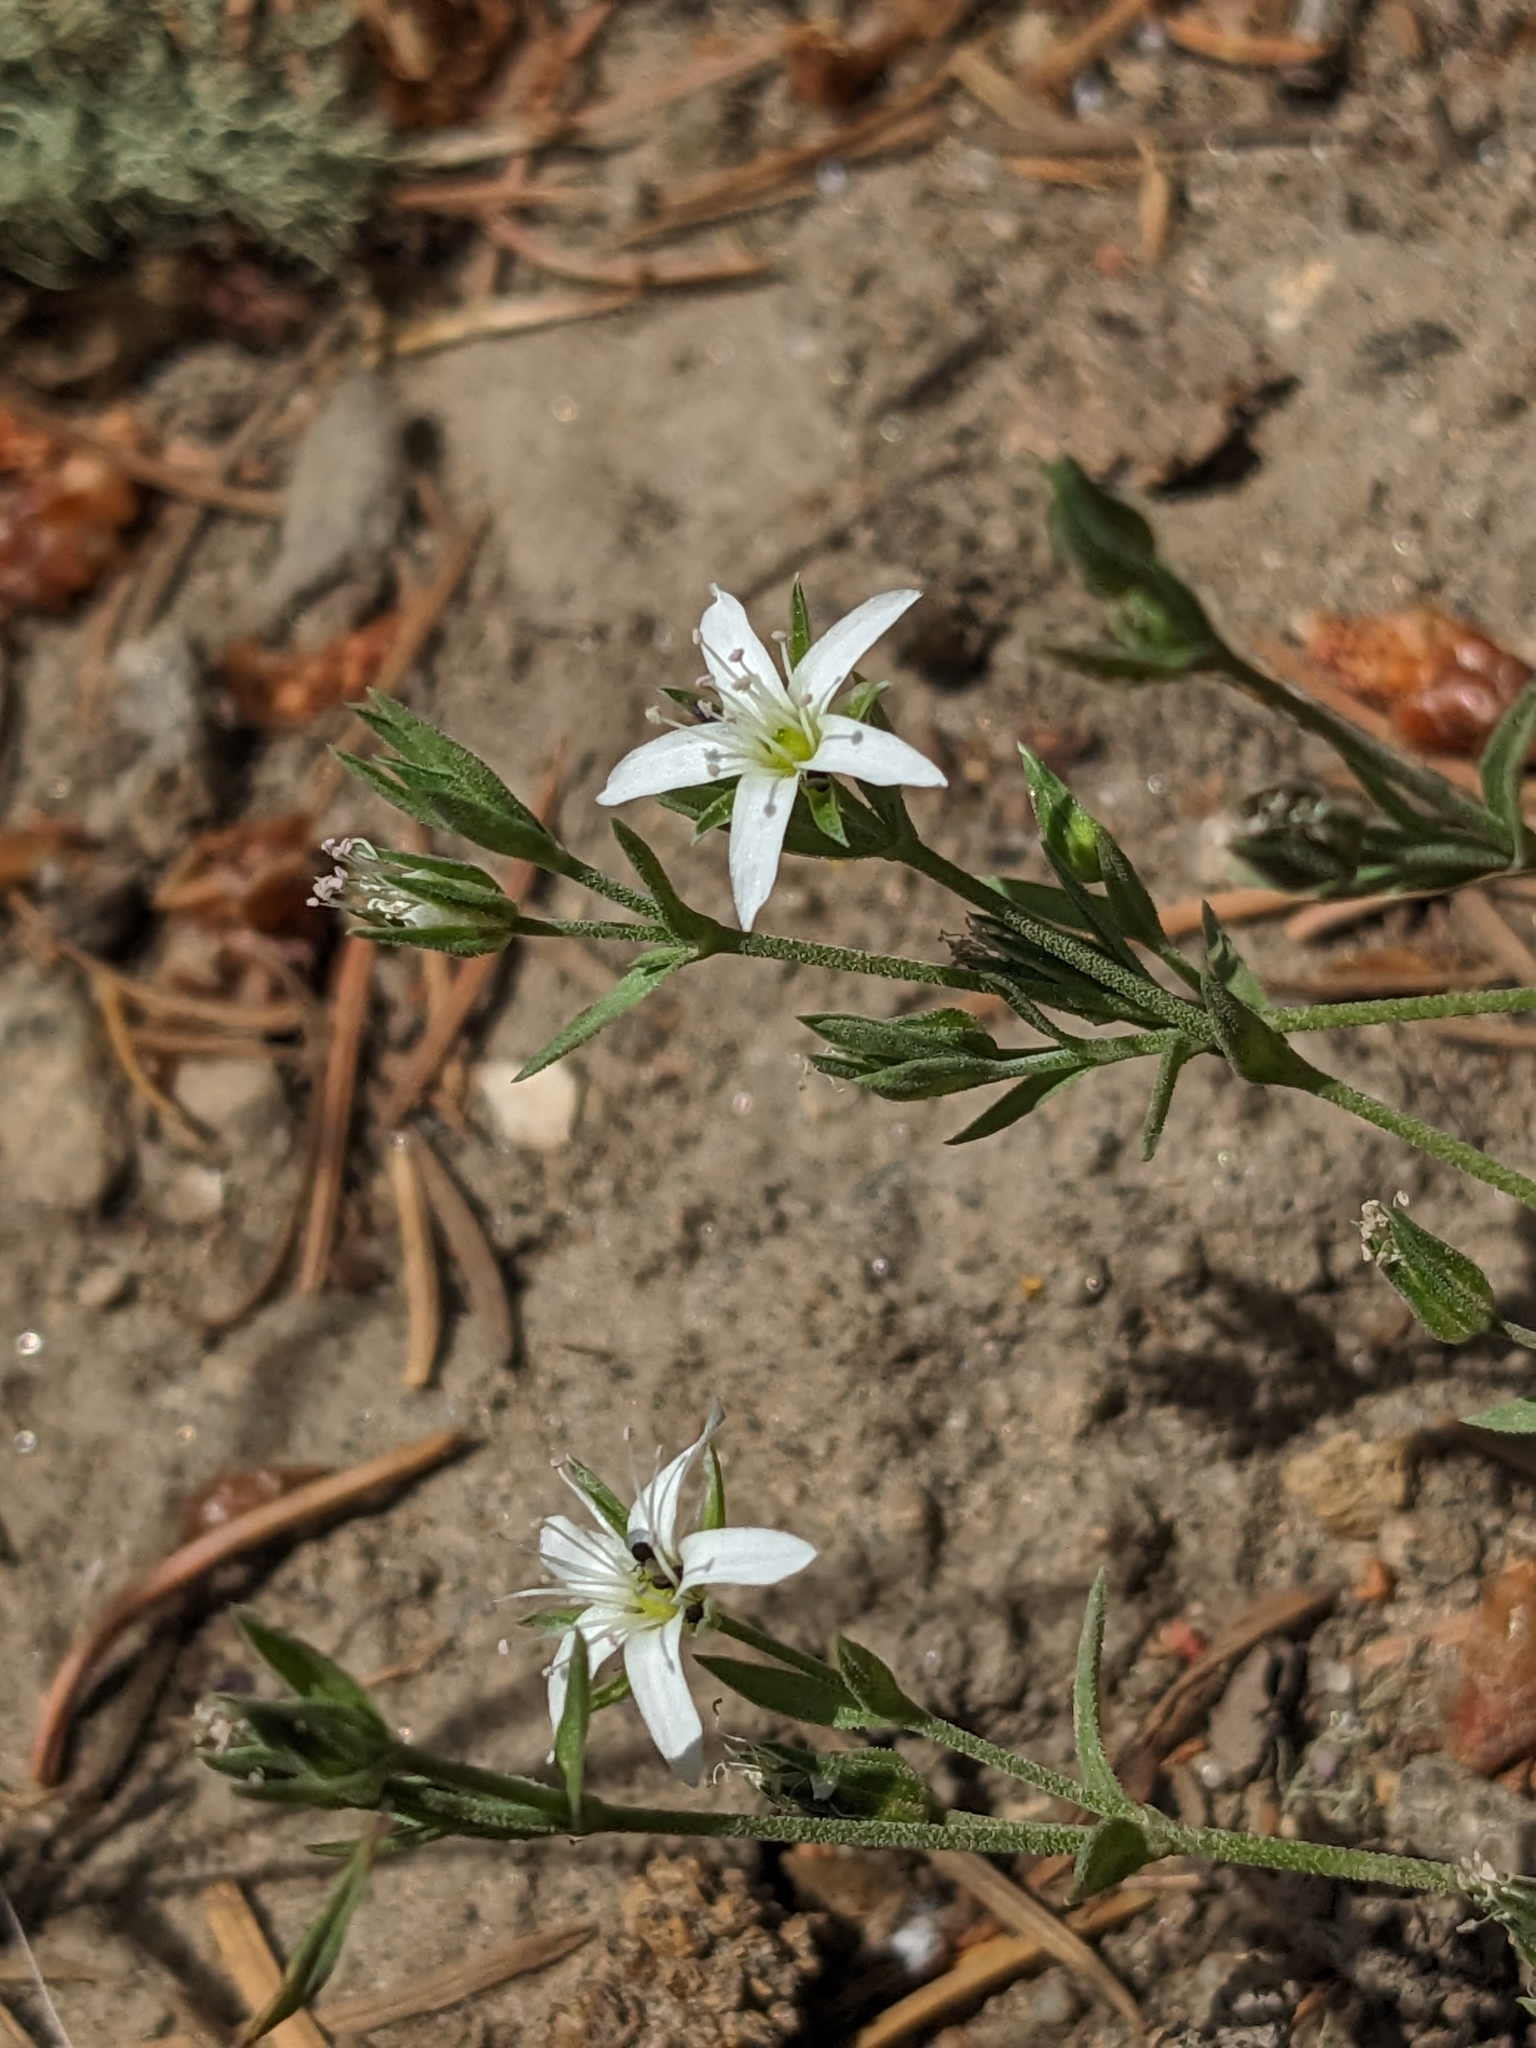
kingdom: Plantae
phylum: Tracheophyta
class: Magnoliopsida
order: Caryophyllales
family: Caryophyllaceae
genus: Arenaria
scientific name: Arenaria lanuginosa
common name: Spread sandwort
